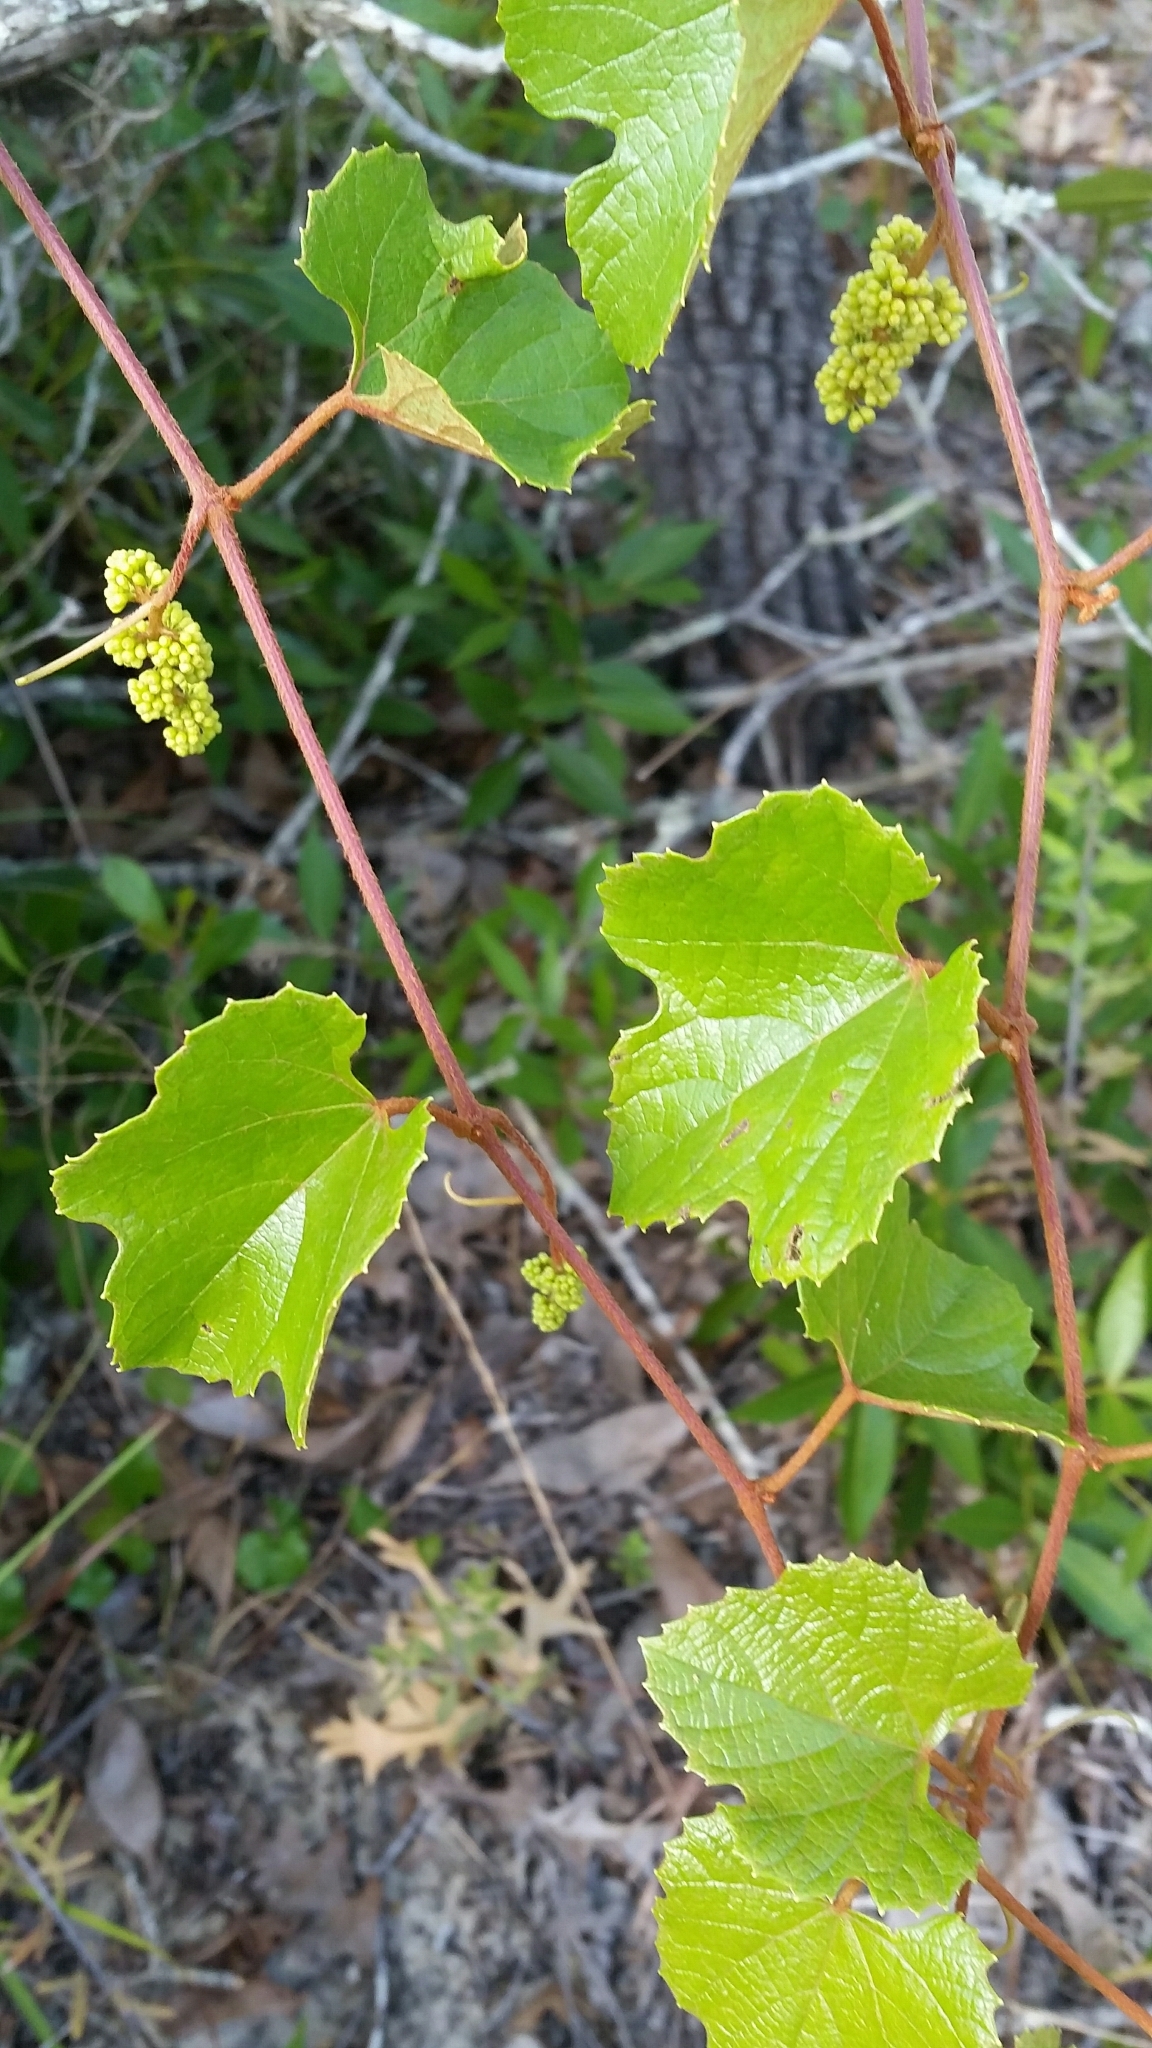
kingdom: Plantae
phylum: Tracheophyta
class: Magnoliopsida
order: Vitales
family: Vitaceae
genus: Vitis
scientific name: Vitis
